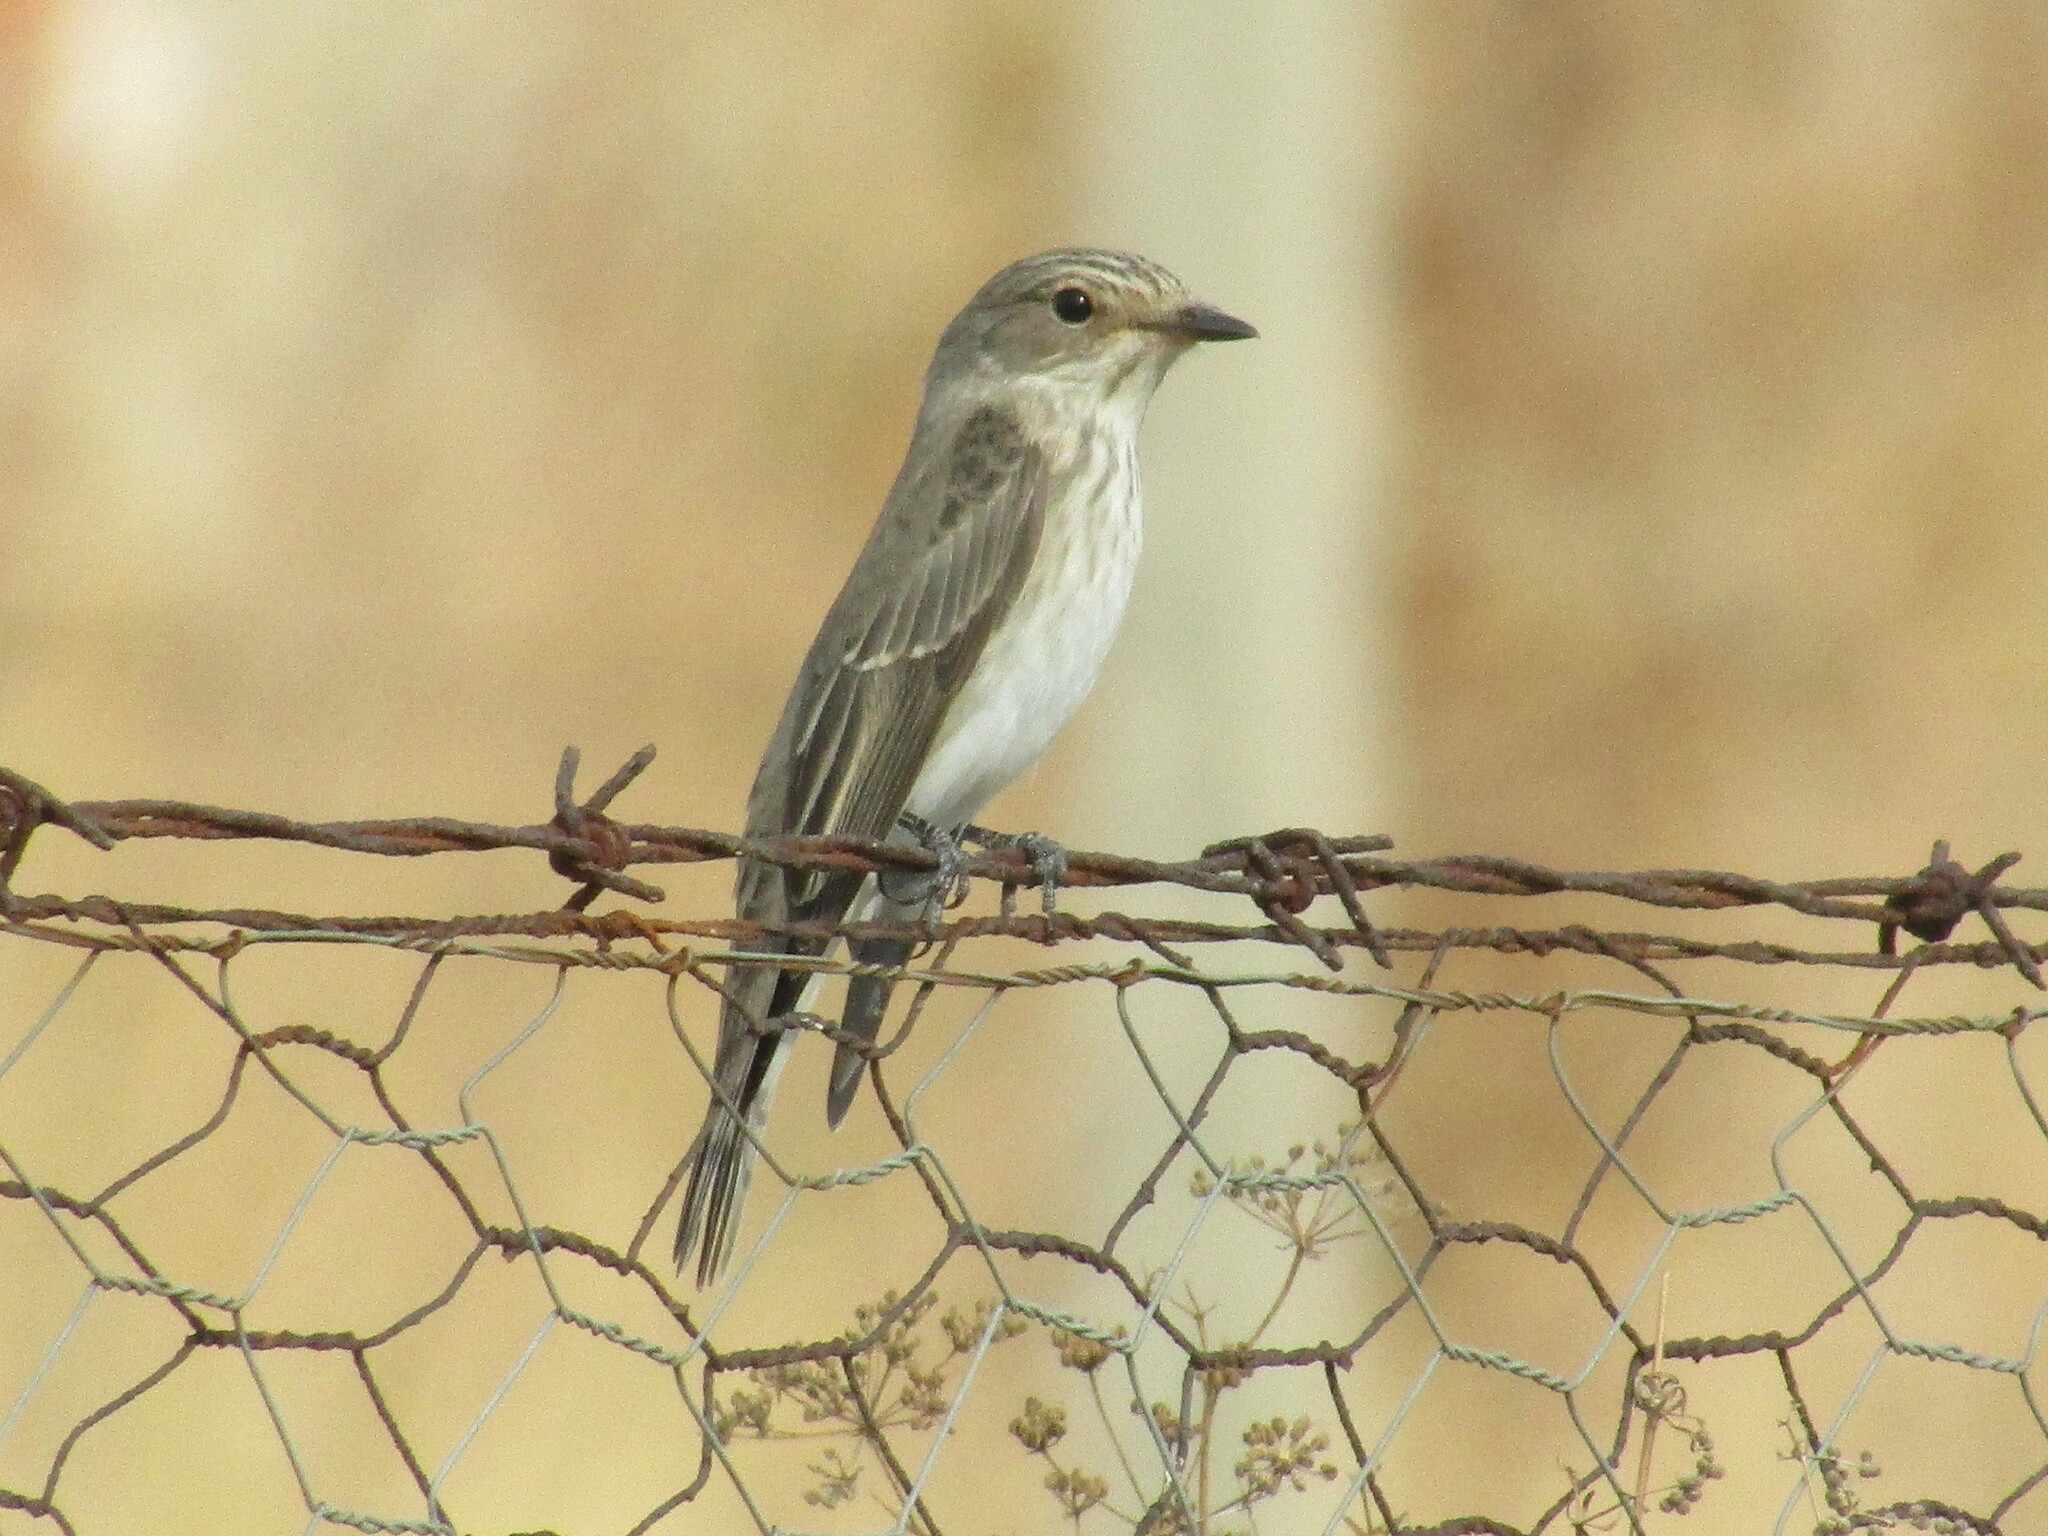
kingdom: Animalia
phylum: Chordata
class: Aves
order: Passeriformes
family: Muscicapidae
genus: Muscicapa
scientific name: Muscicapa striata
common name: Spotted flycatcher
